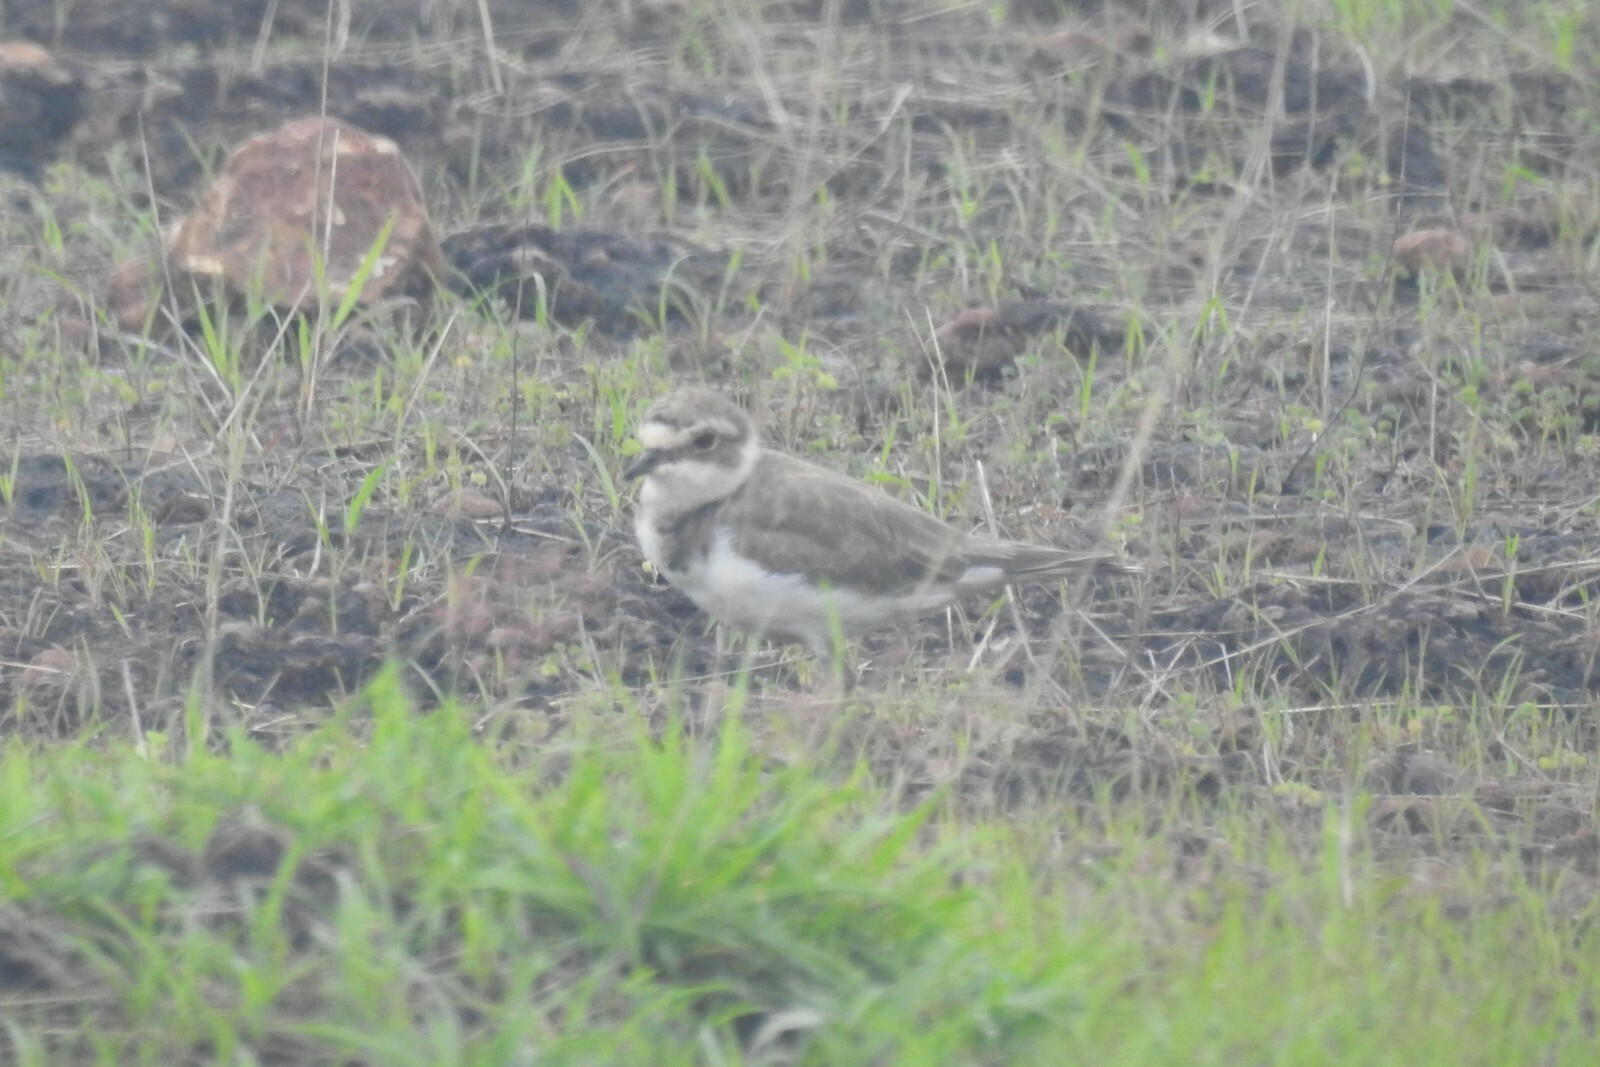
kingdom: Animalia
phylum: Chordata
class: Aves
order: Charadriiformes
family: Charadriidae
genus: Charadrius
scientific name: Charadrius dubius
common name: Little ringed plover
